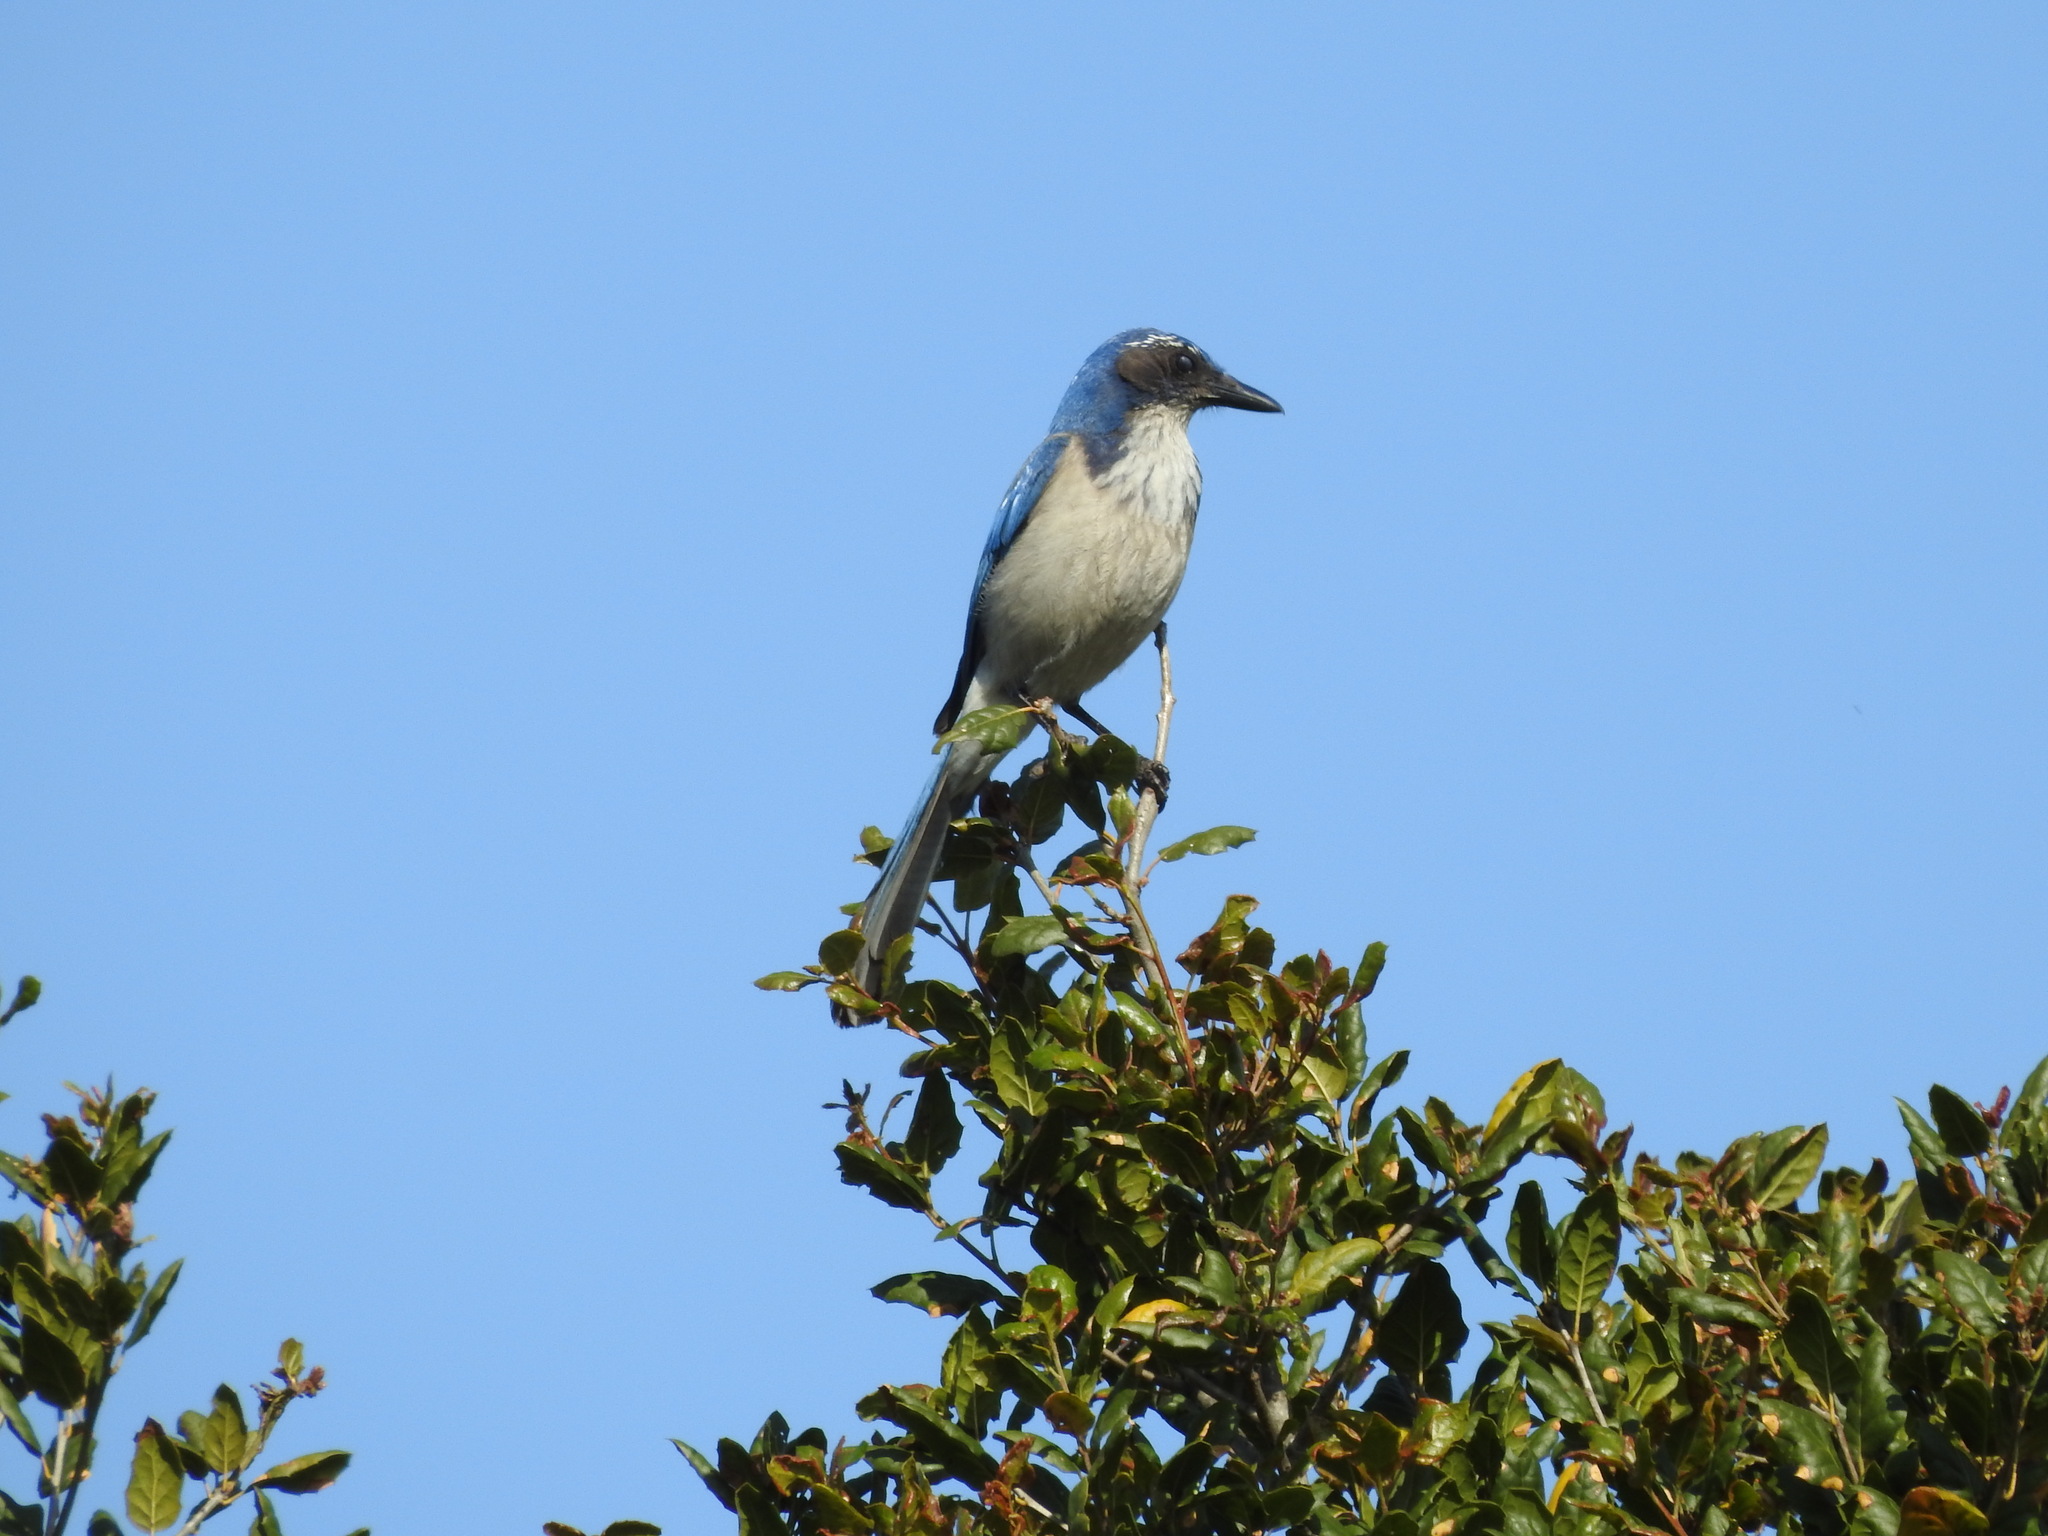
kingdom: Animalia
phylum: Chordata
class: Aves
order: Passeriformes
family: Corvidae
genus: Aphelocoma
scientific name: Aphelocoma californica
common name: California scrub-jay
